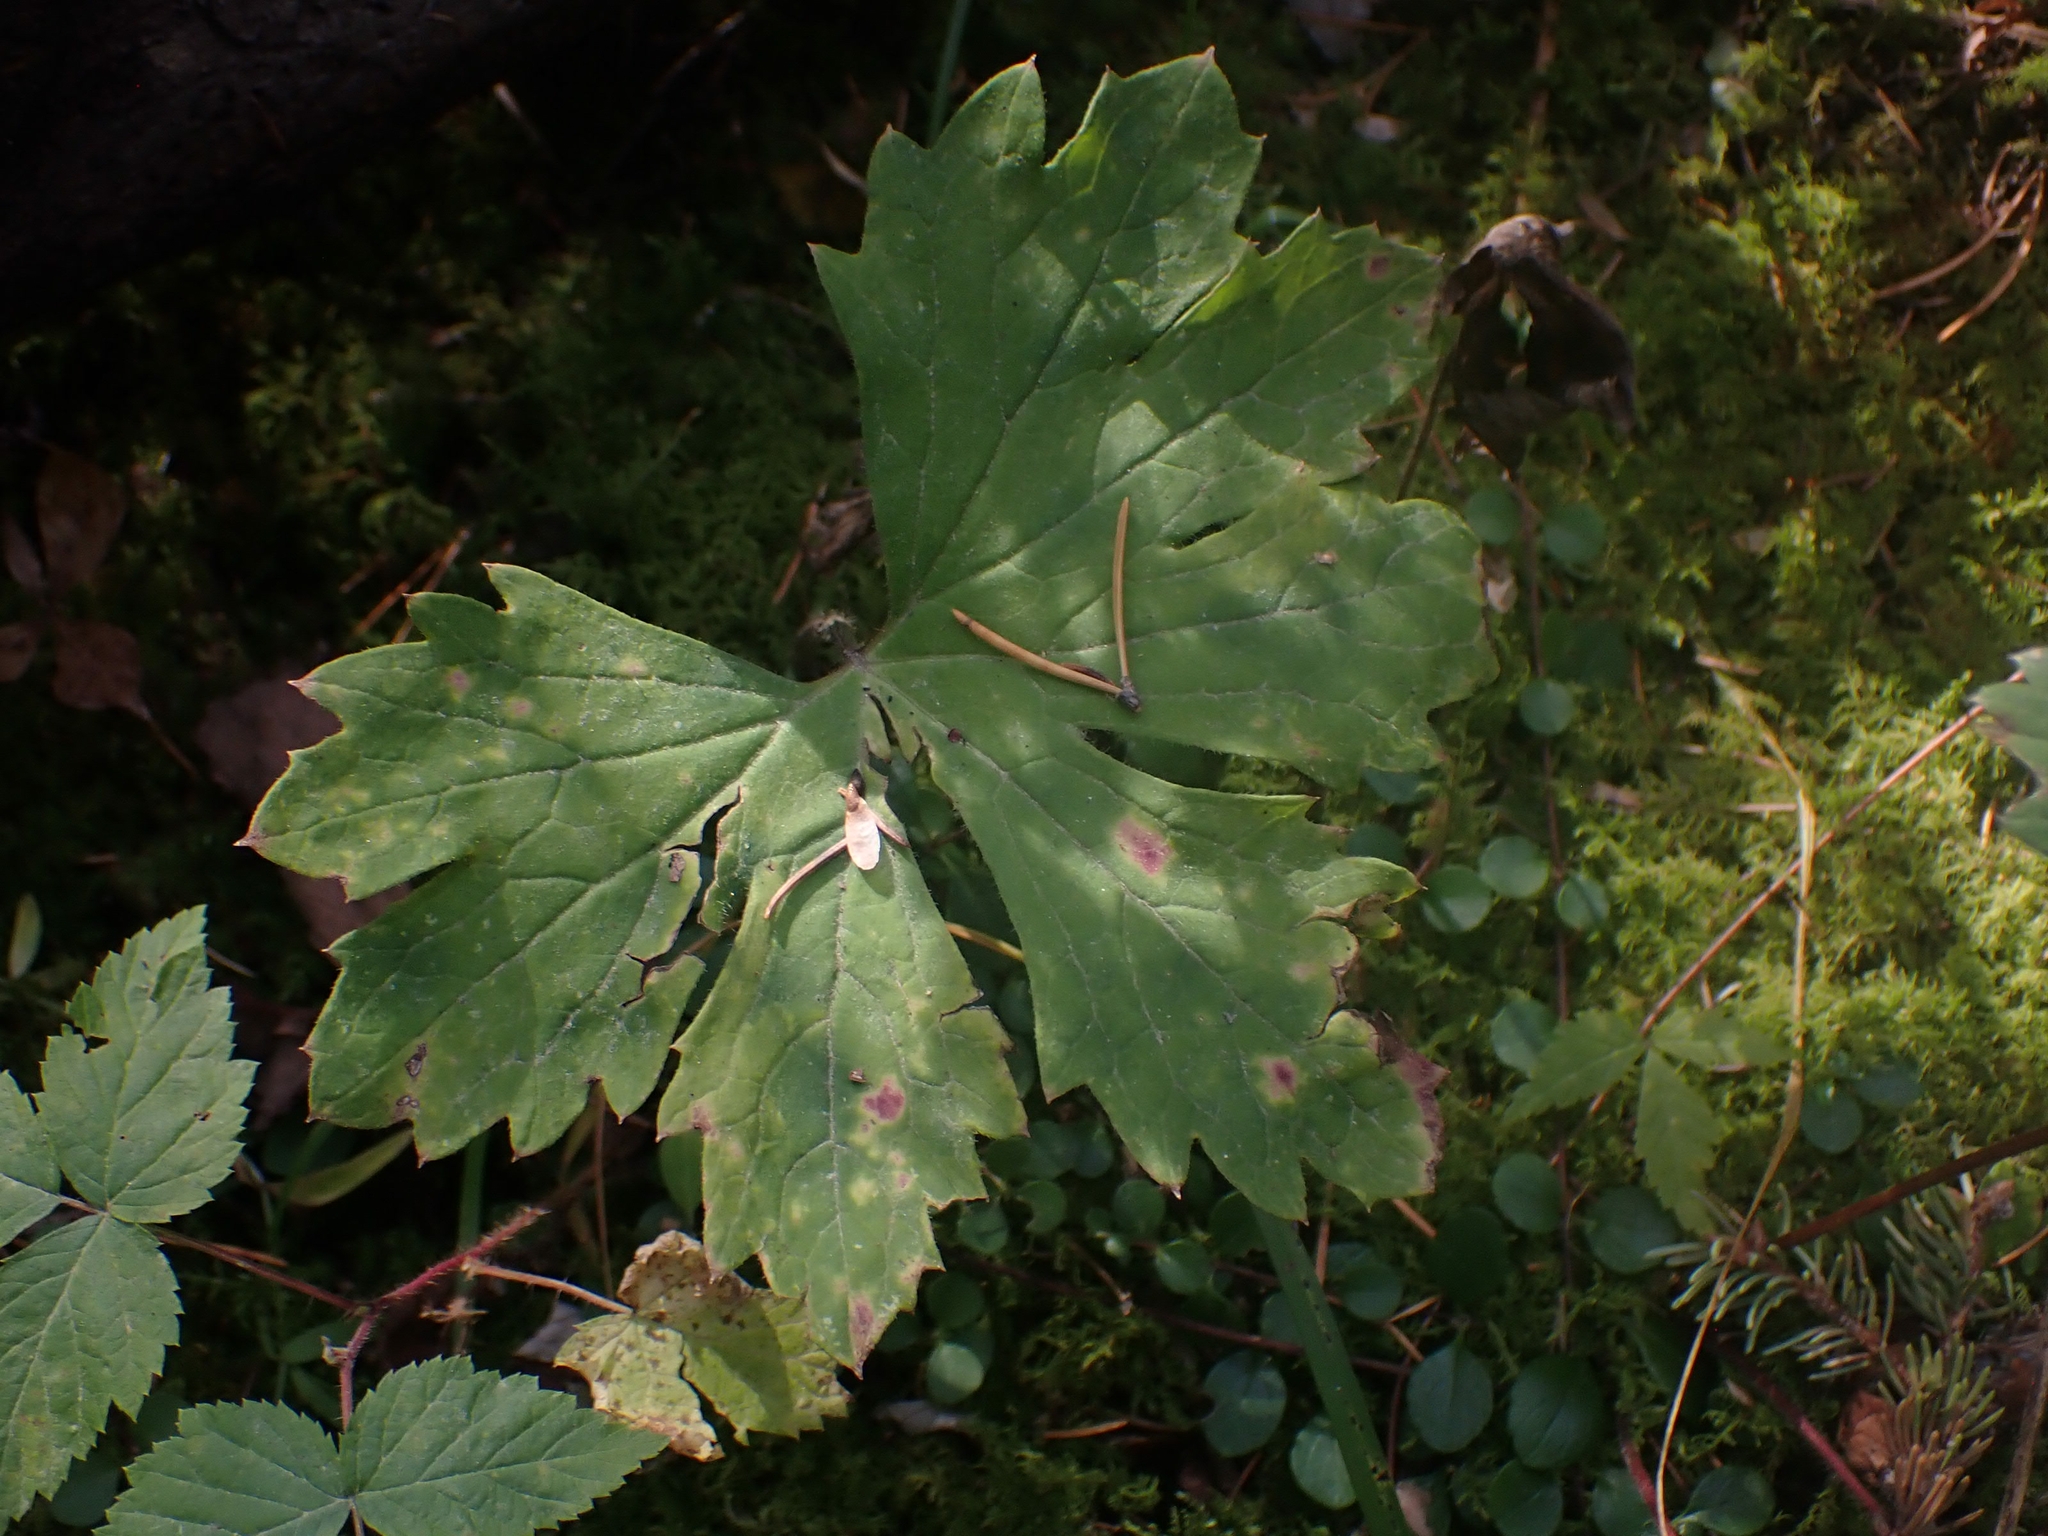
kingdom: Plantae
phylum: Tracheophyta
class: Magnoliopsida
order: Asterales
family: Asteraceae
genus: Petasites
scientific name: Petasites frigidus
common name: Arctic butterbur
